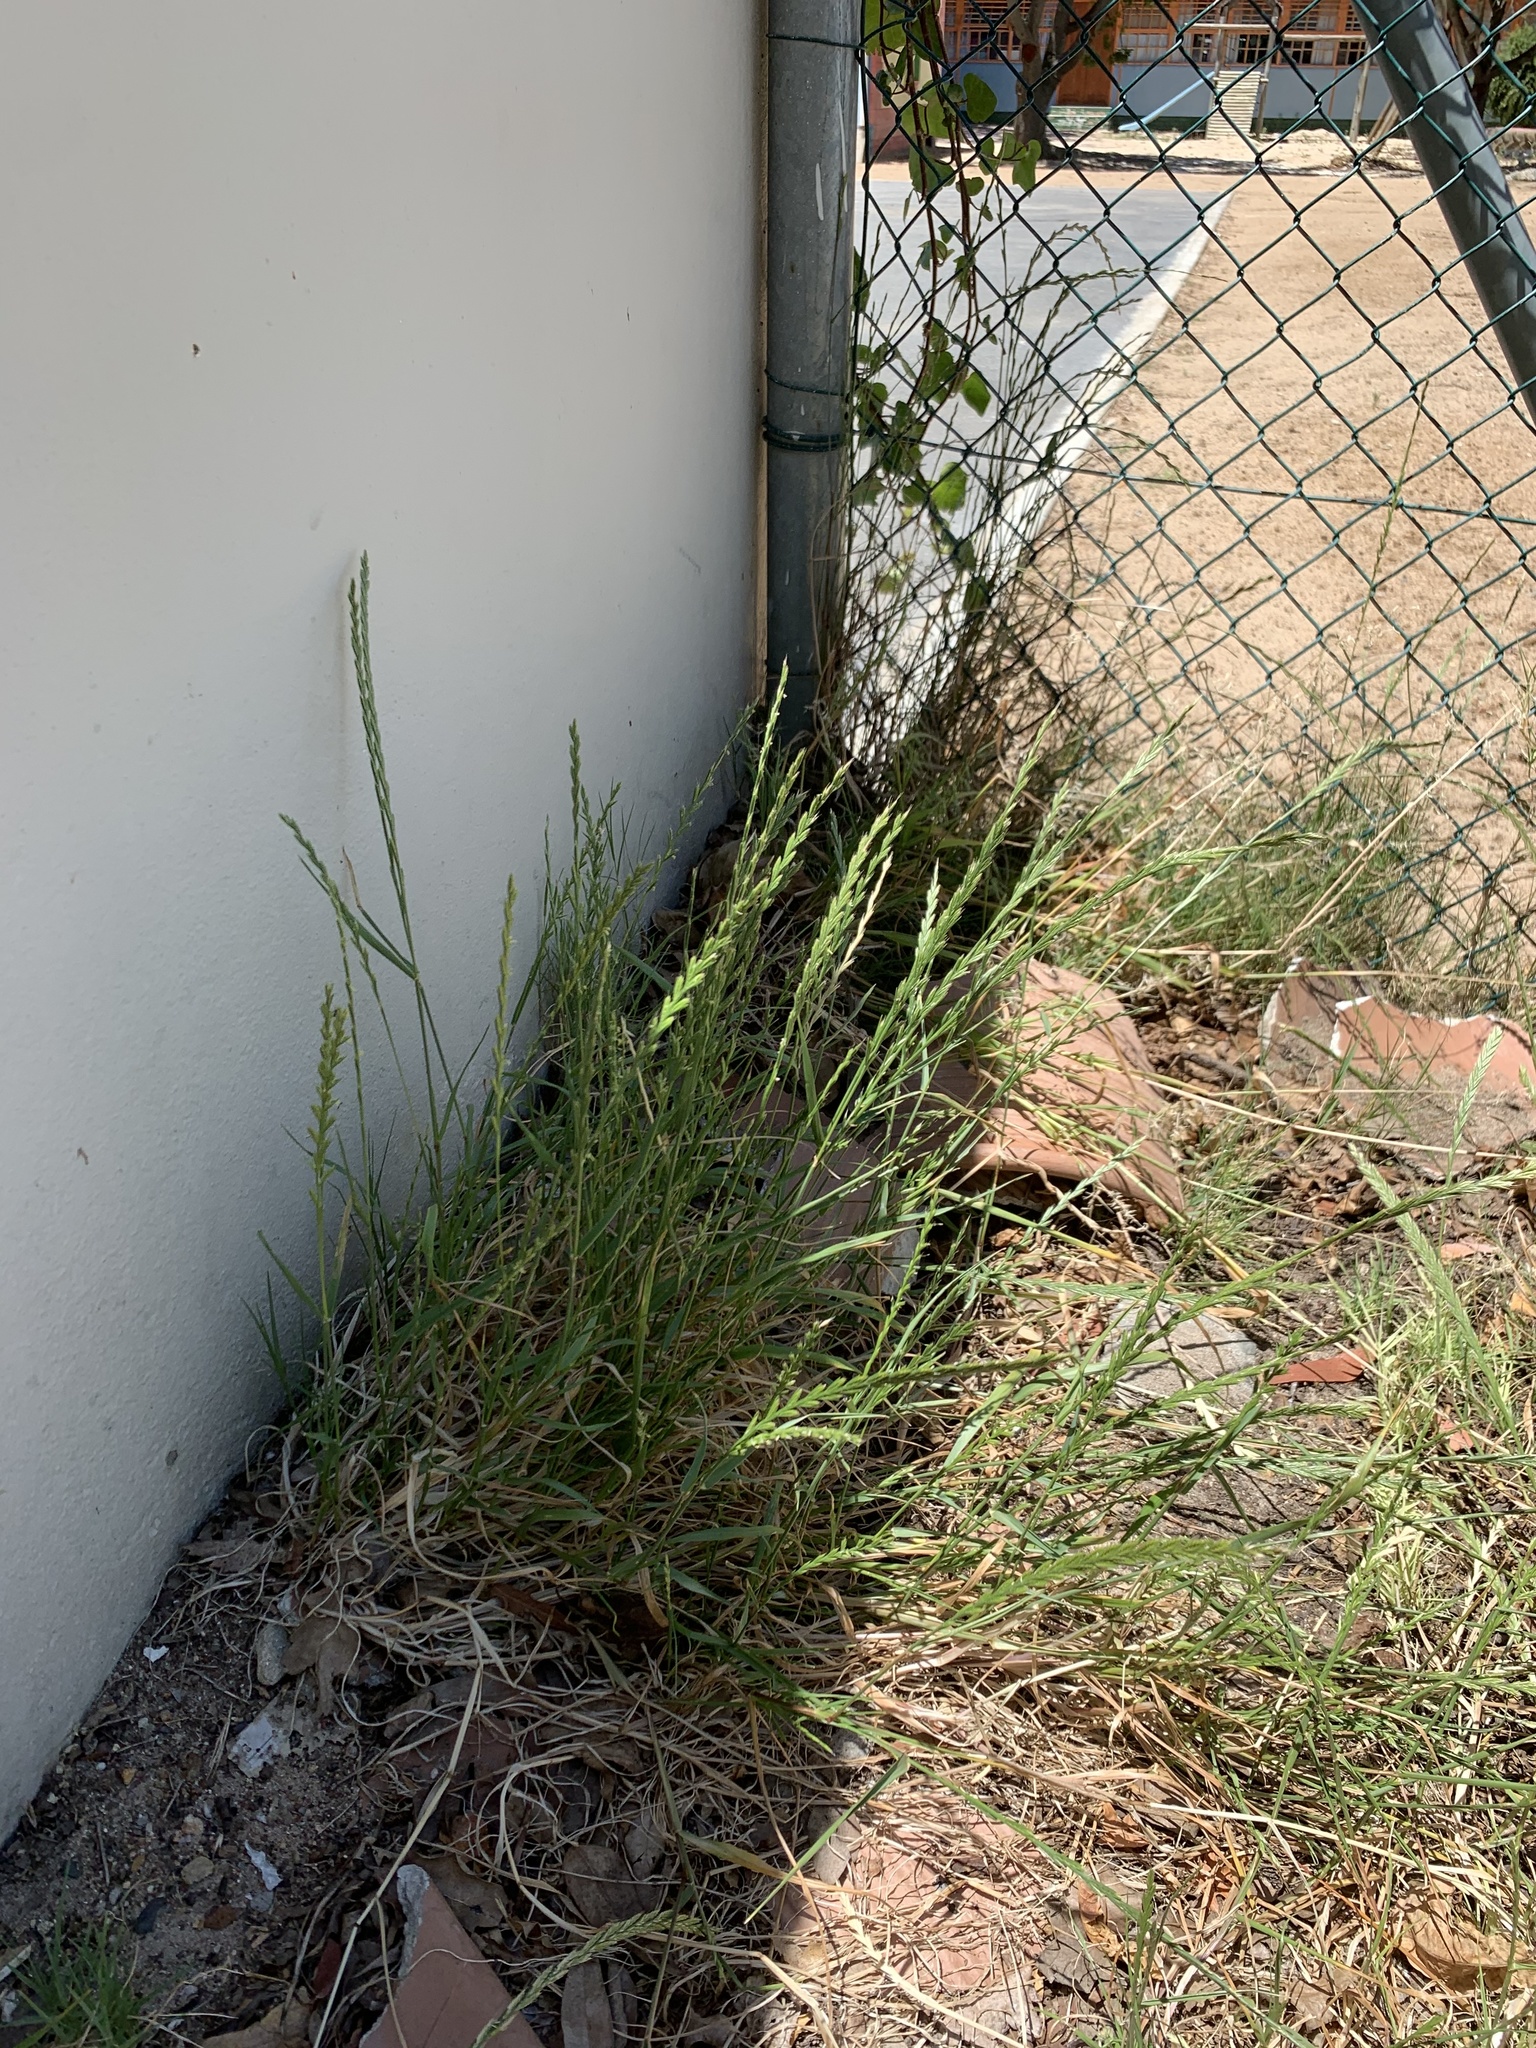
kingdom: Plantae
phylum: Tracheophyta
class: Liliopsida
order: Poales
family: Poaceae
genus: Lolium
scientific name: Lolium multiflorum
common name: Annual ryegrass
